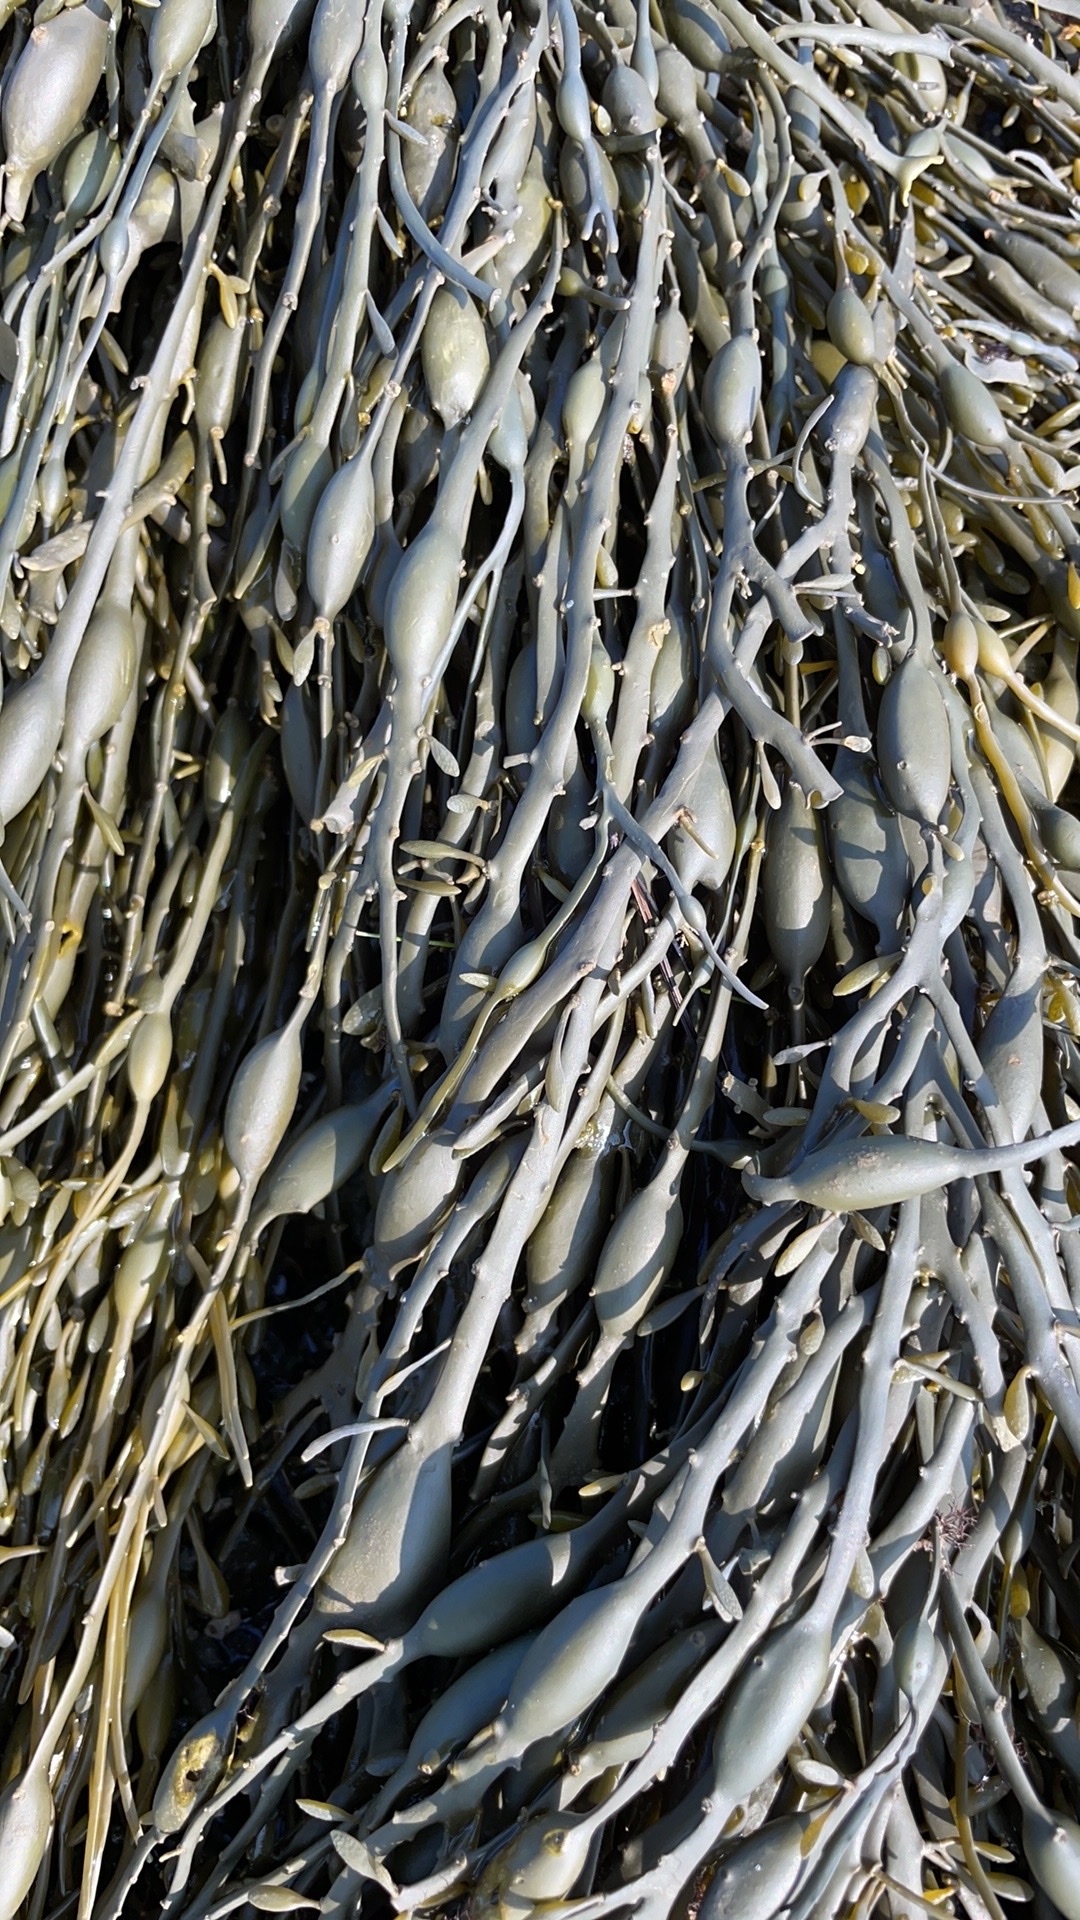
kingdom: Chromista
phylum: Ochrophyta
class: Phaeophyceae
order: Fucales
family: Fucaceae
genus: Ascophyllum
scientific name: Ascophyllum nodosum
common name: Knotted wrack
